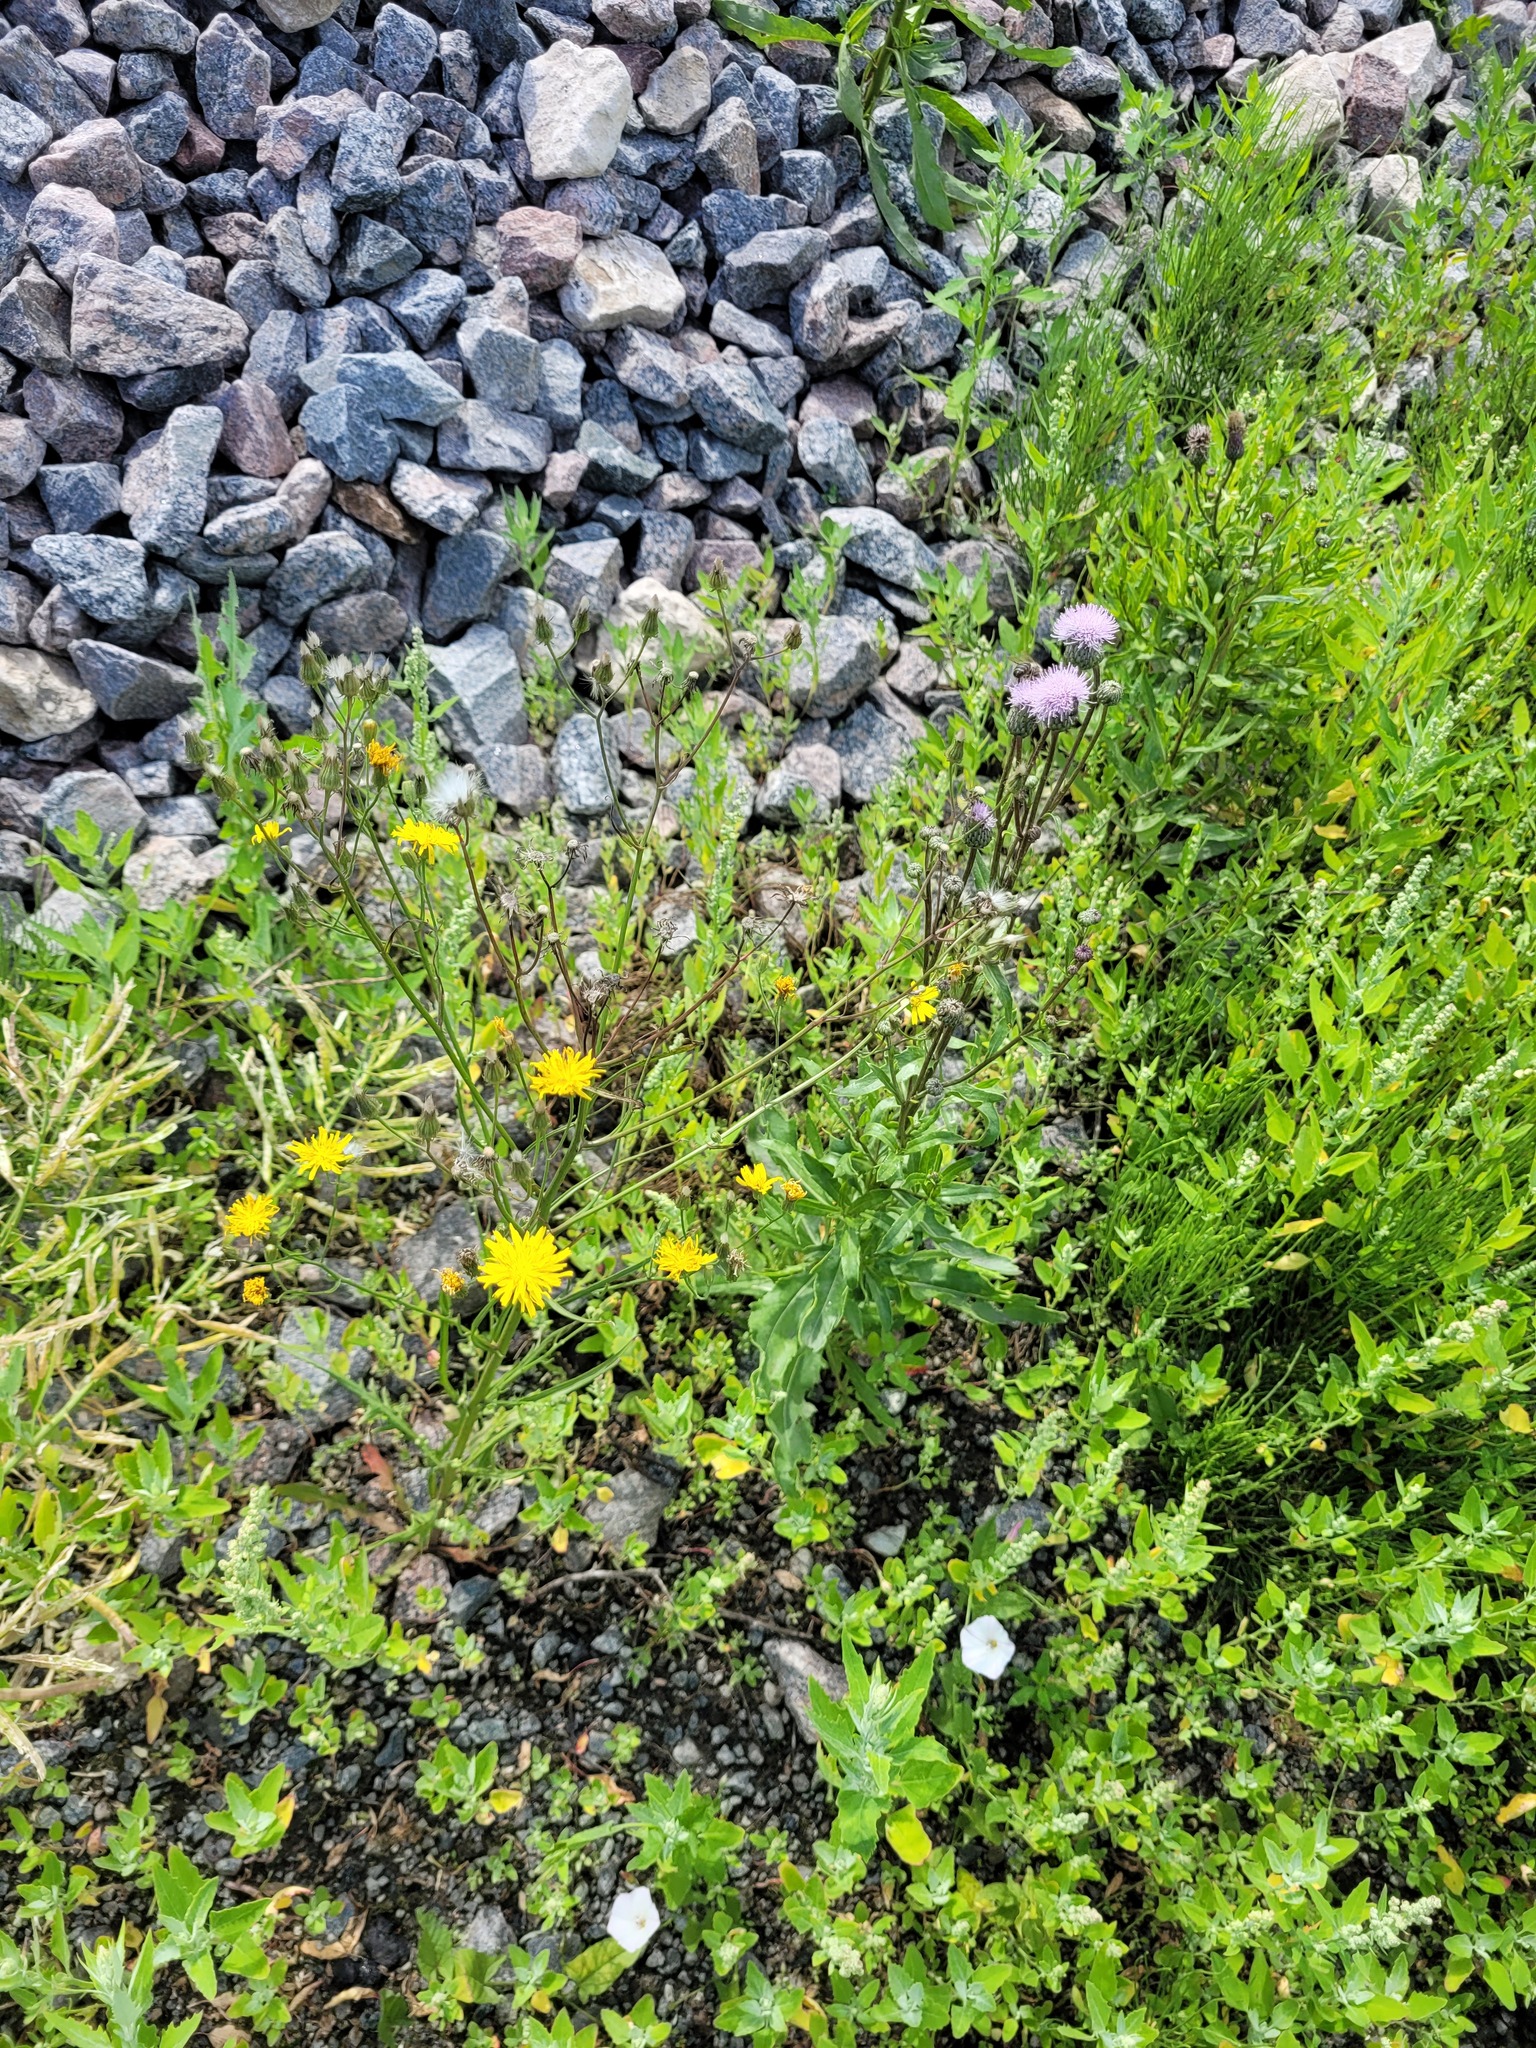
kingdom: Plantae
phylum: Tracheophyta
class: Magnoliopsida
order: Asterales
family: Asteraceae
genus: Crepis
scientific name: Crepis tectorum
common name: Narrow-leaved hawk's-beard
